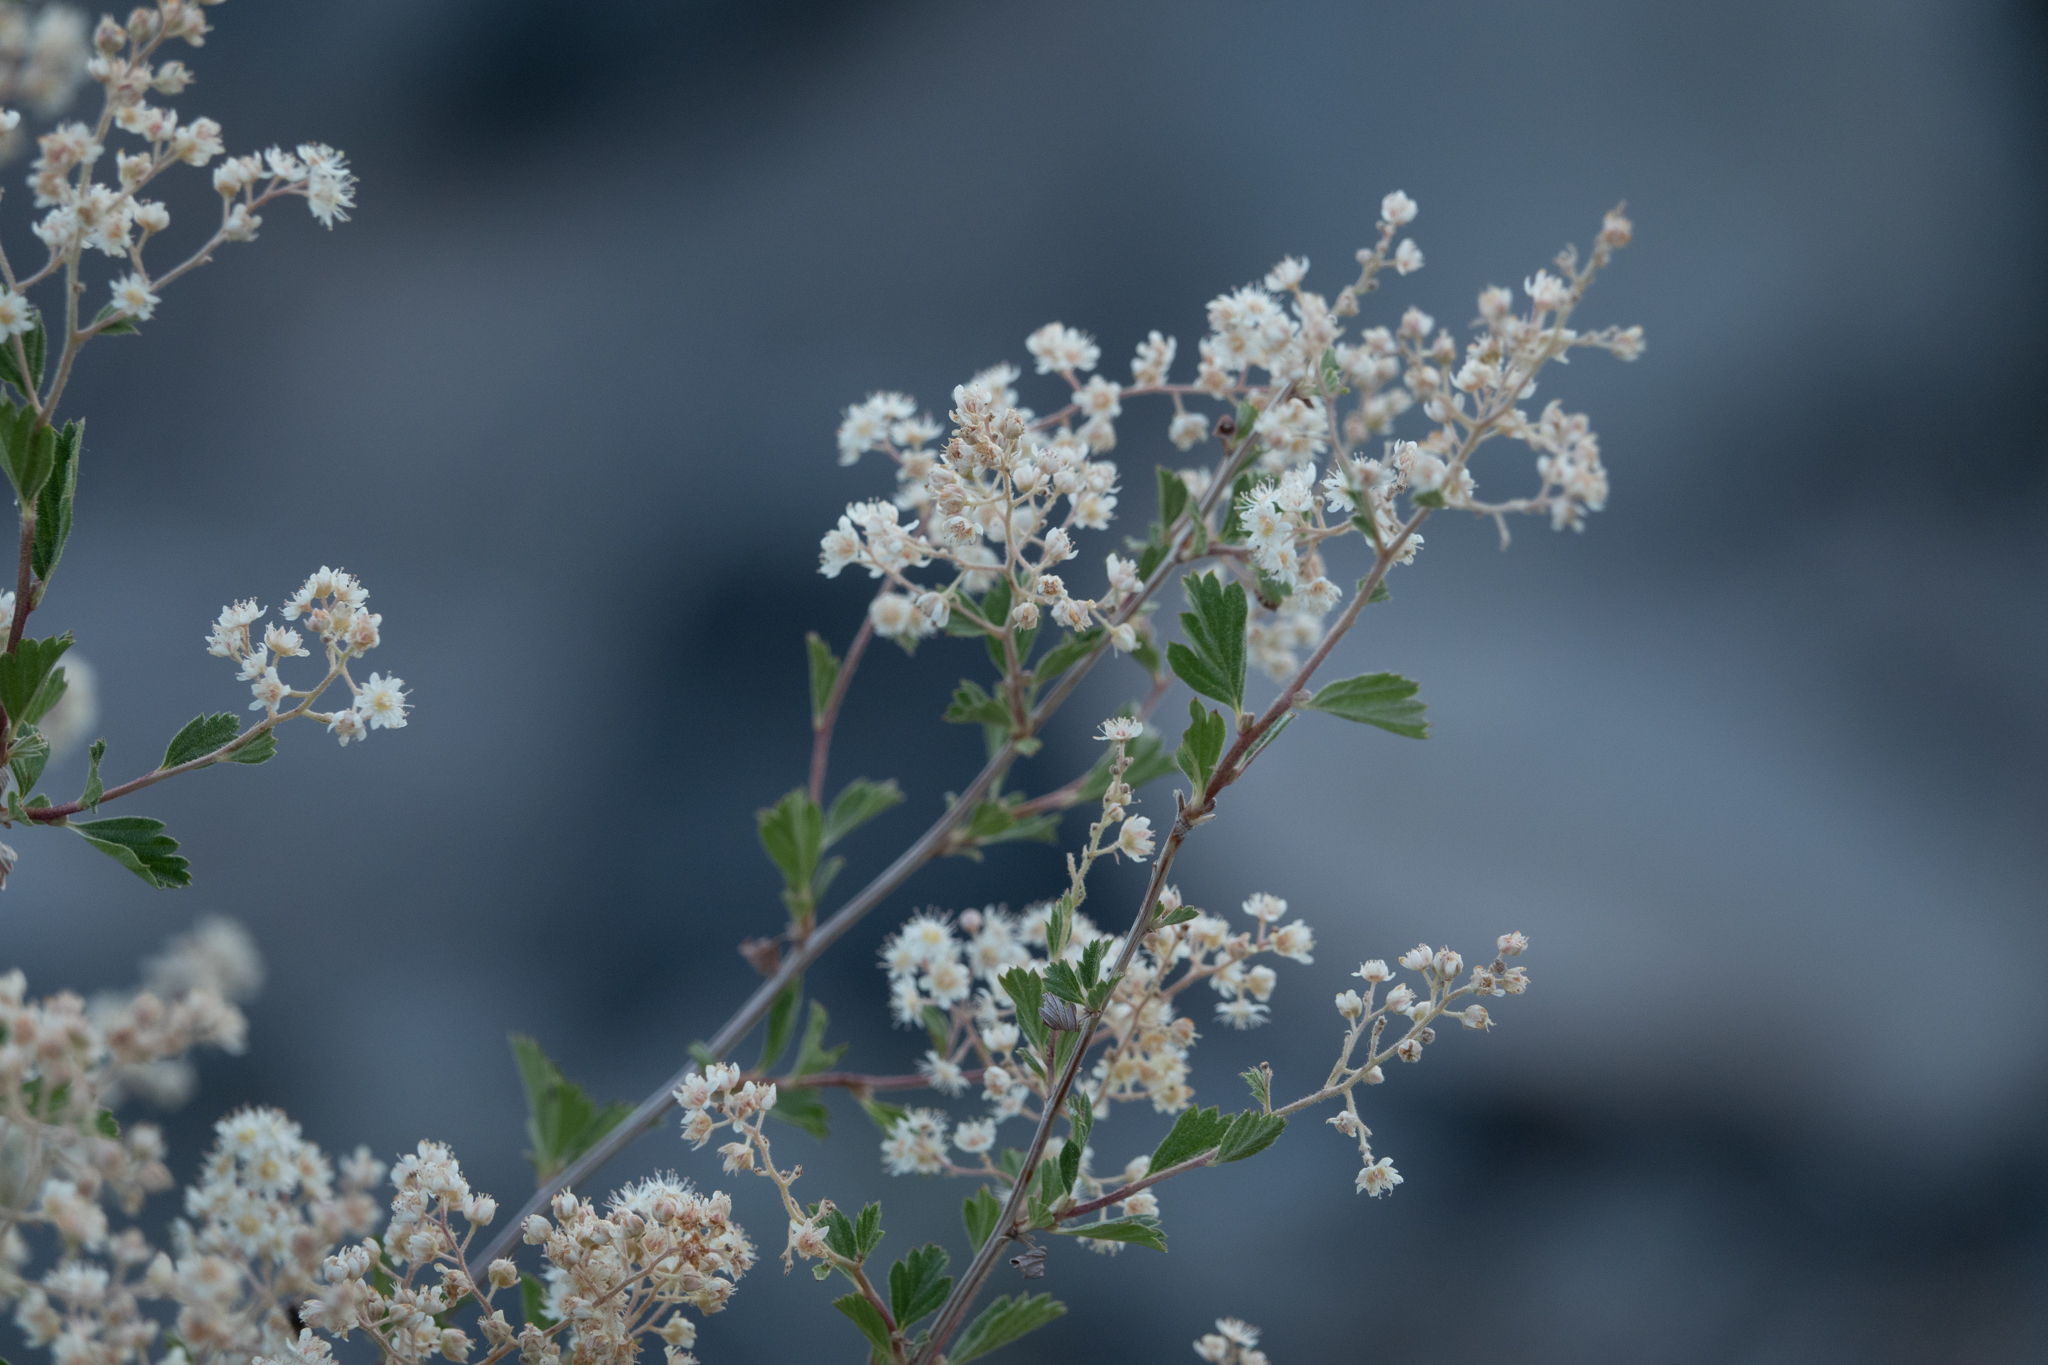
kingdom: Plantae
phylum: Tracheophyta
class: Magnoliopsida
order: Rosales
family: Rosaceae
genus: Holodiscus
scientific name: Holodiscus discolor
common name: Oceanspray
